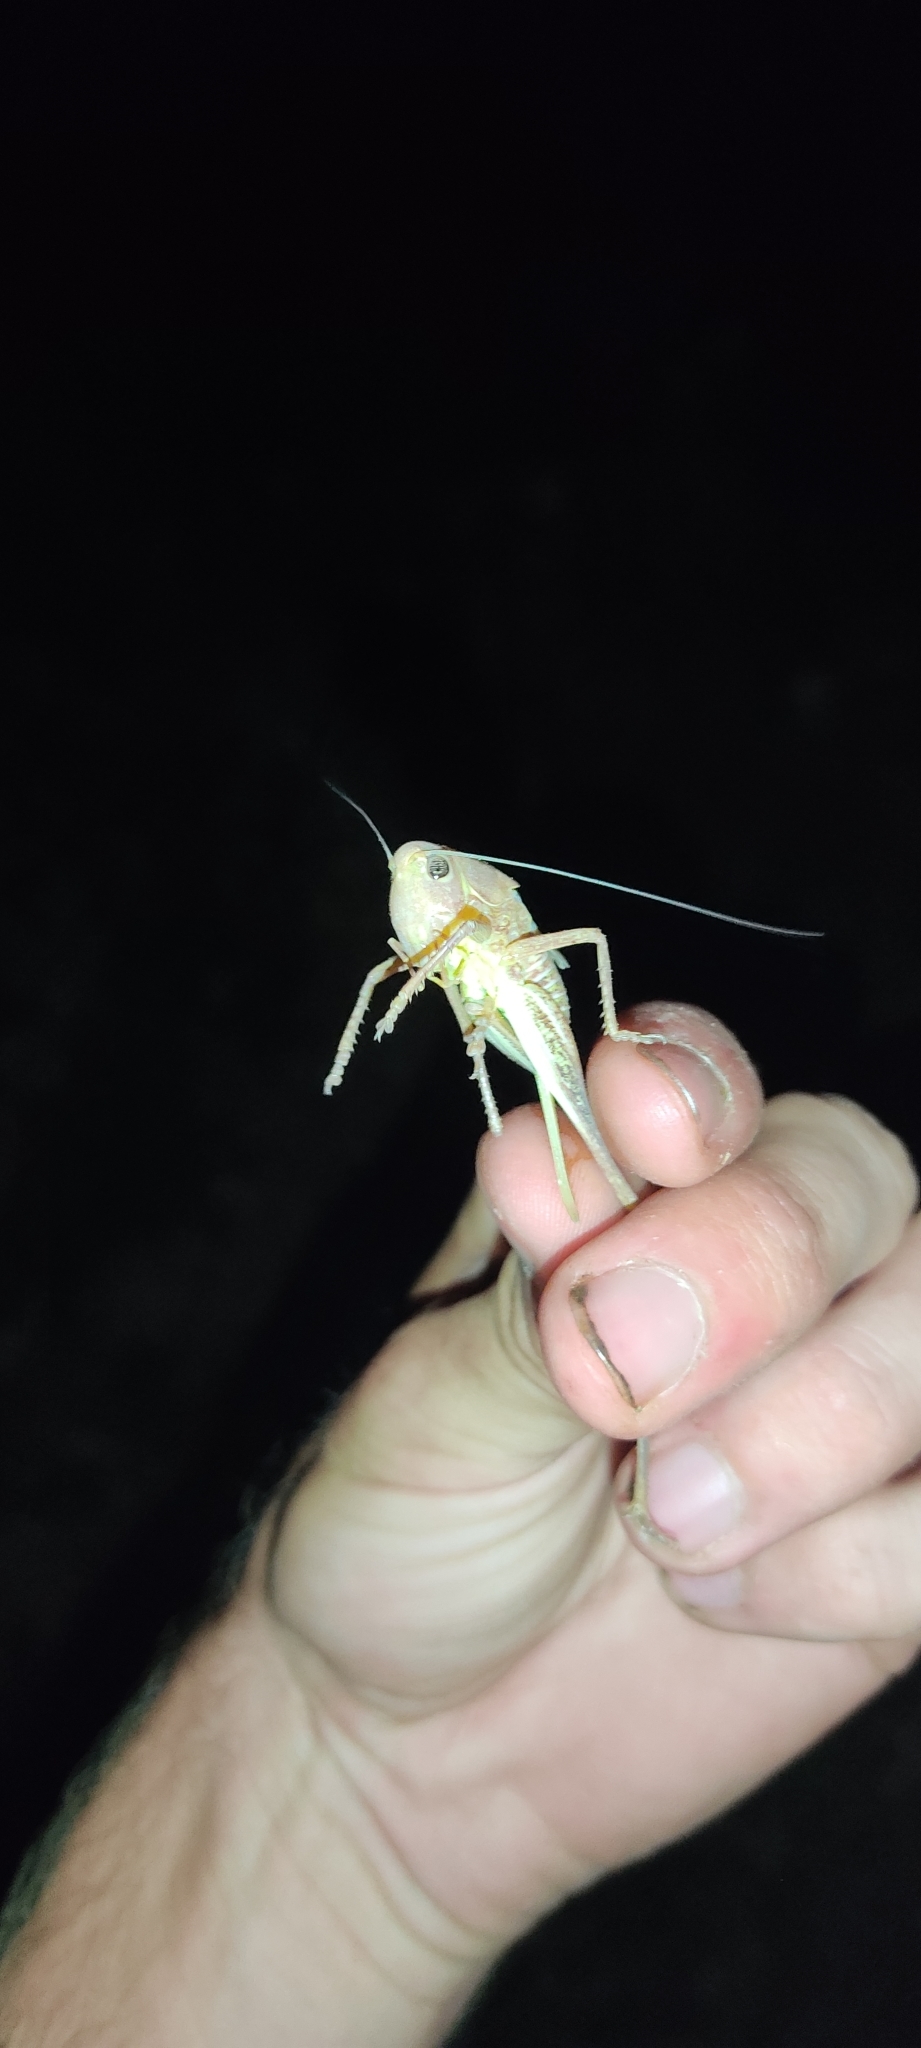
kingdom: Animalia
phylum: Arthropoda
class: Insecta
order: Orthoptera
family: Tettigoniidae
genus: Decticus
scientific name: Decticus albifrons
